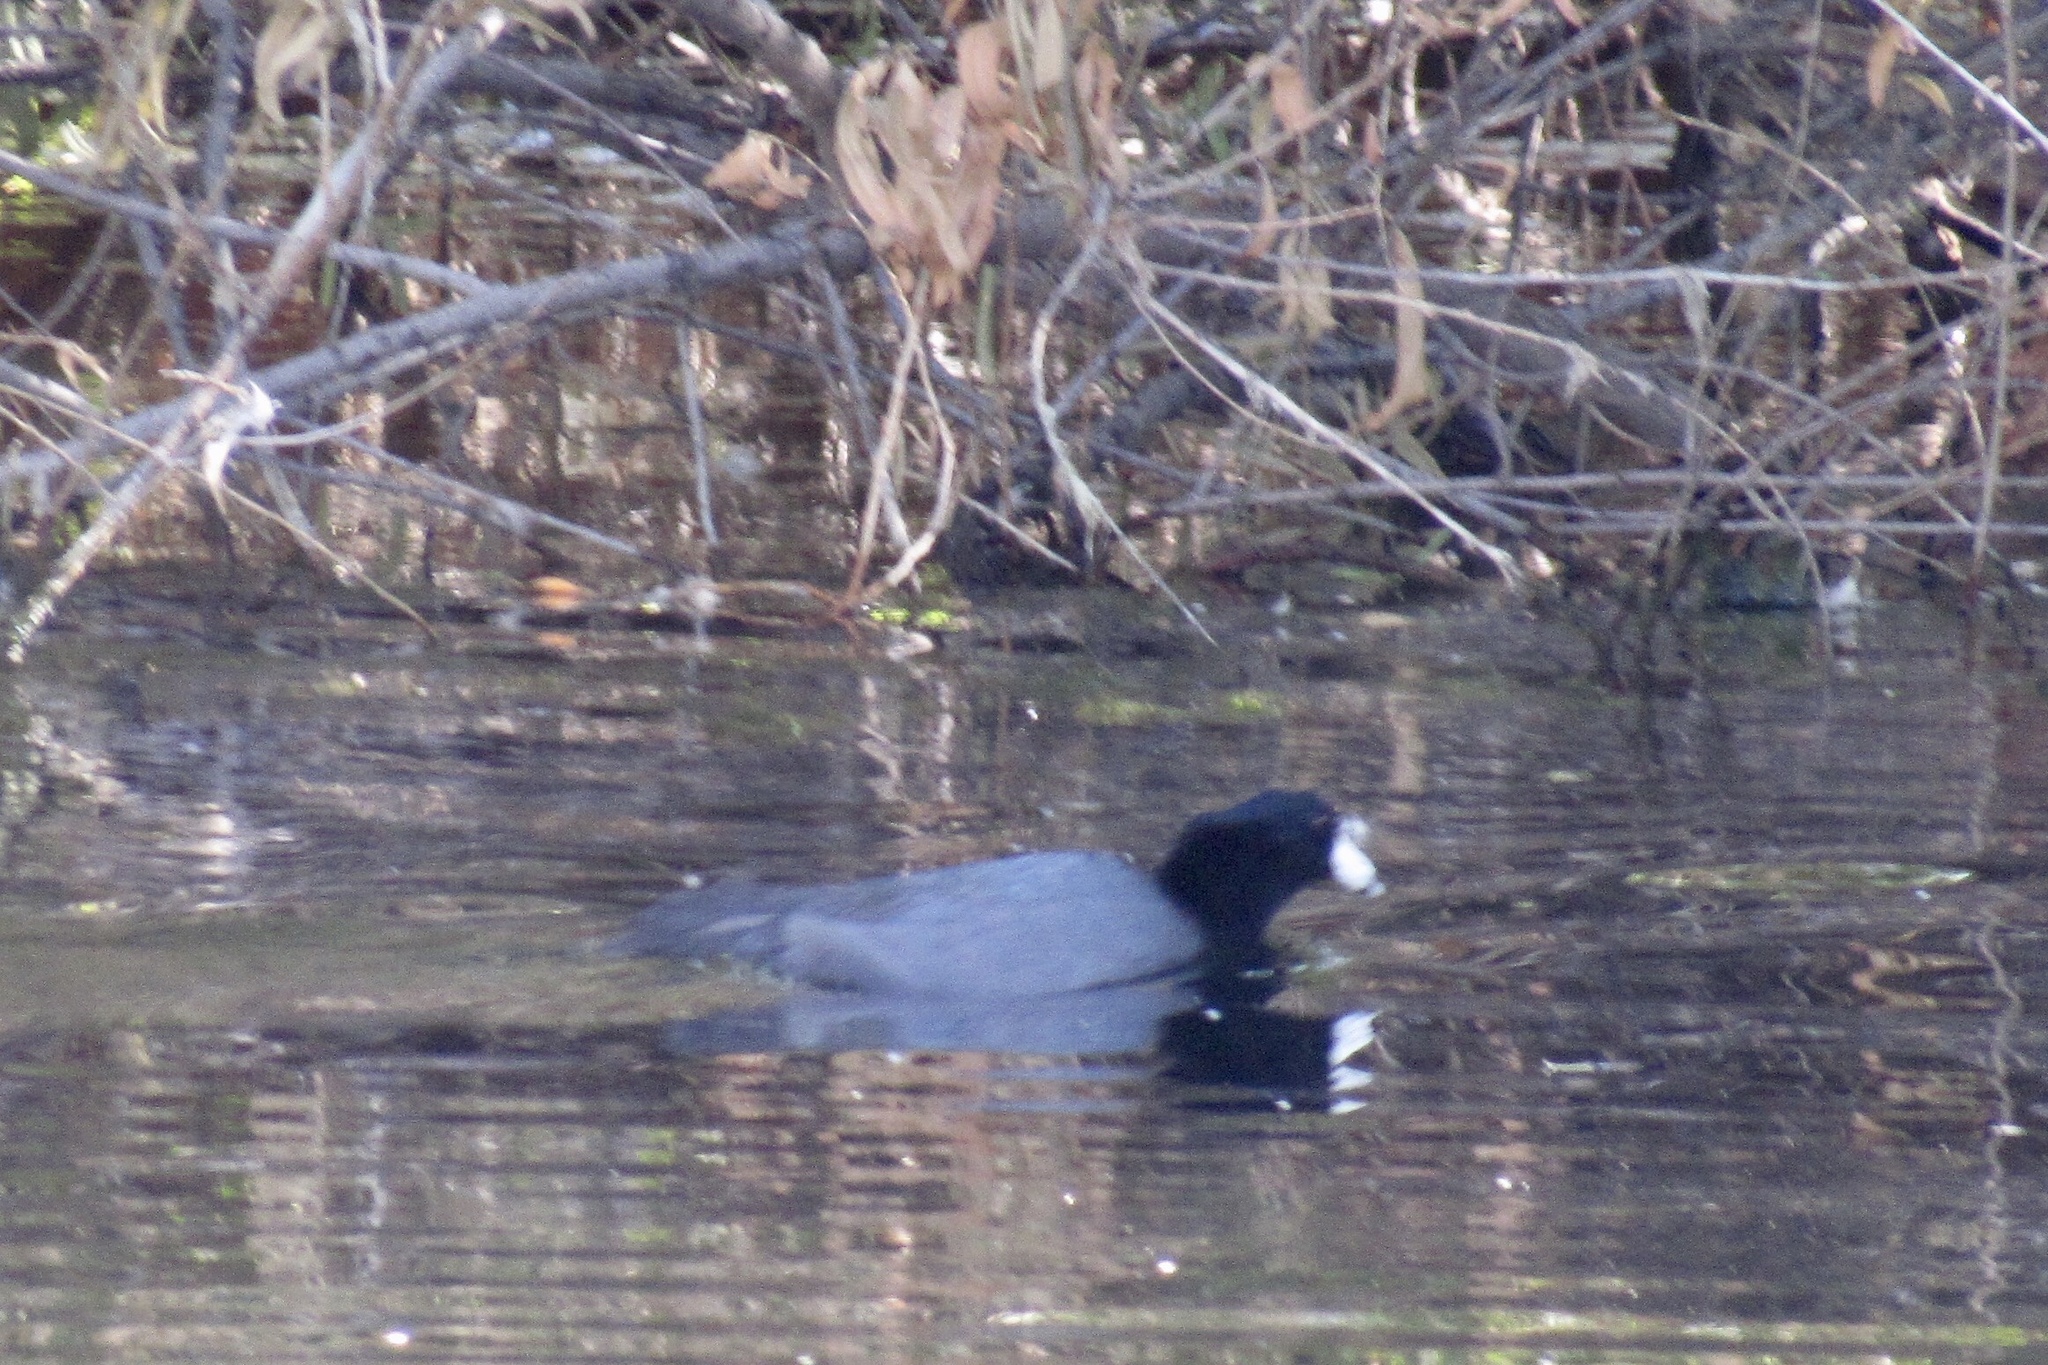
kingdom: Animalia
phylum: Chordata
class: Aves
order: Gruiformes
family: Rallidae
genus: Fulica
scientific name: Fulica americana
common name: American coot
